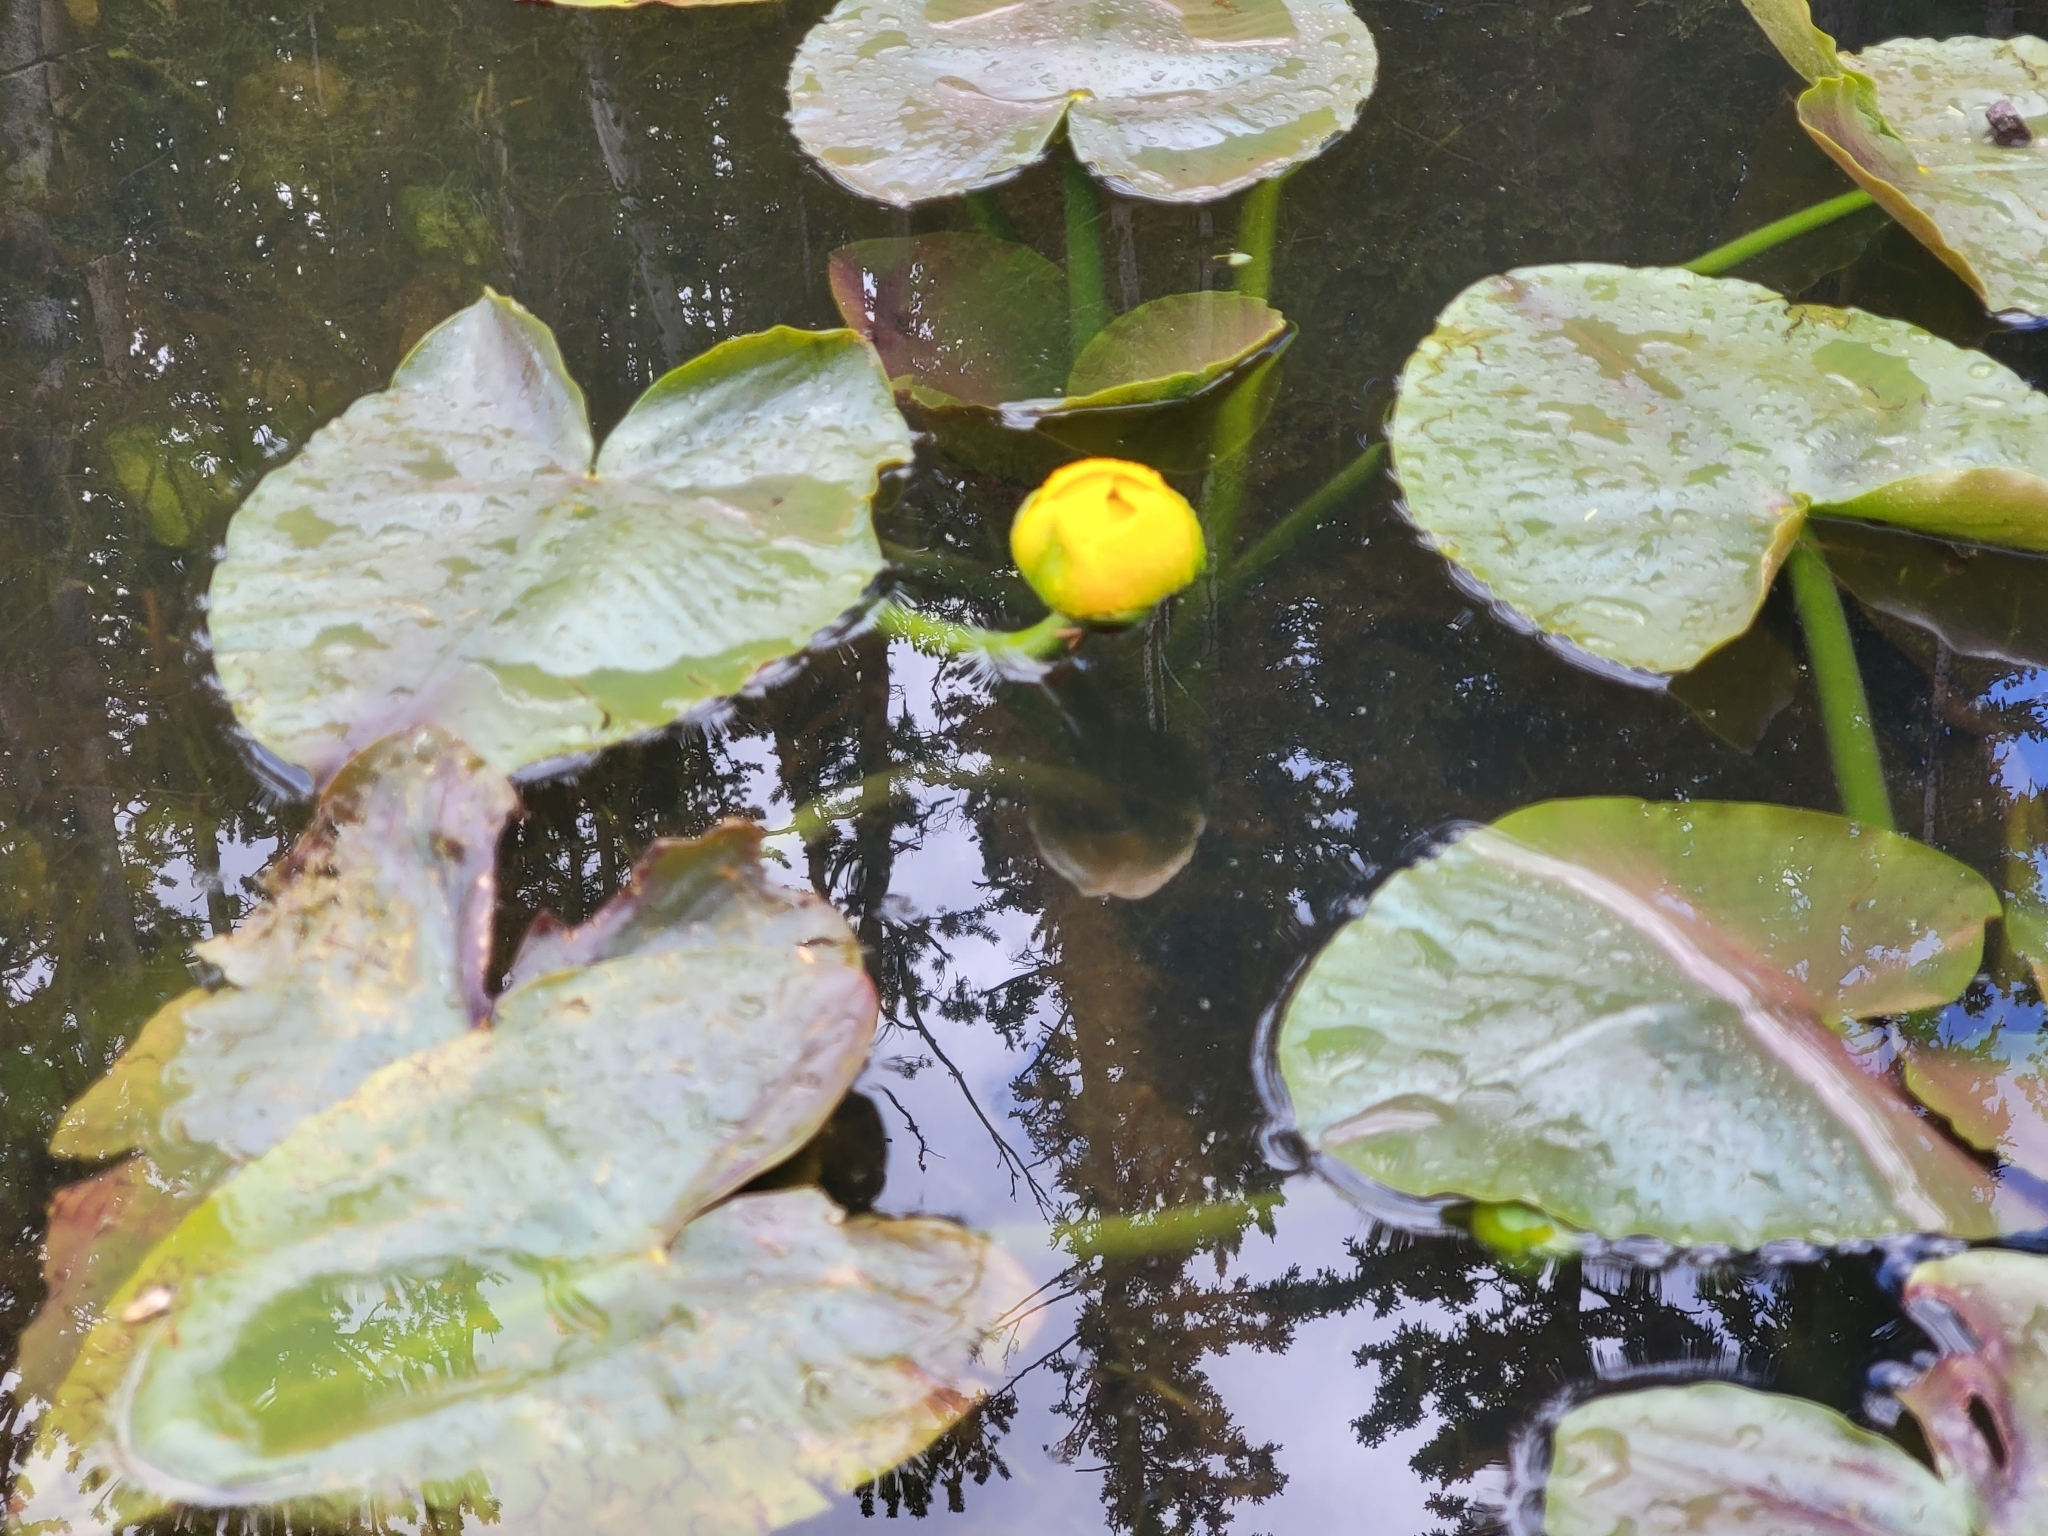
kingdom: Plantae
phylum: Tracheophyta
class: Magnoliopsida
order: Nymphaeales
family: Nymphaeaceae
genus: Nuphar
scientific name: Nuphar polysepala
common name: Rocky mountain cow-lily
